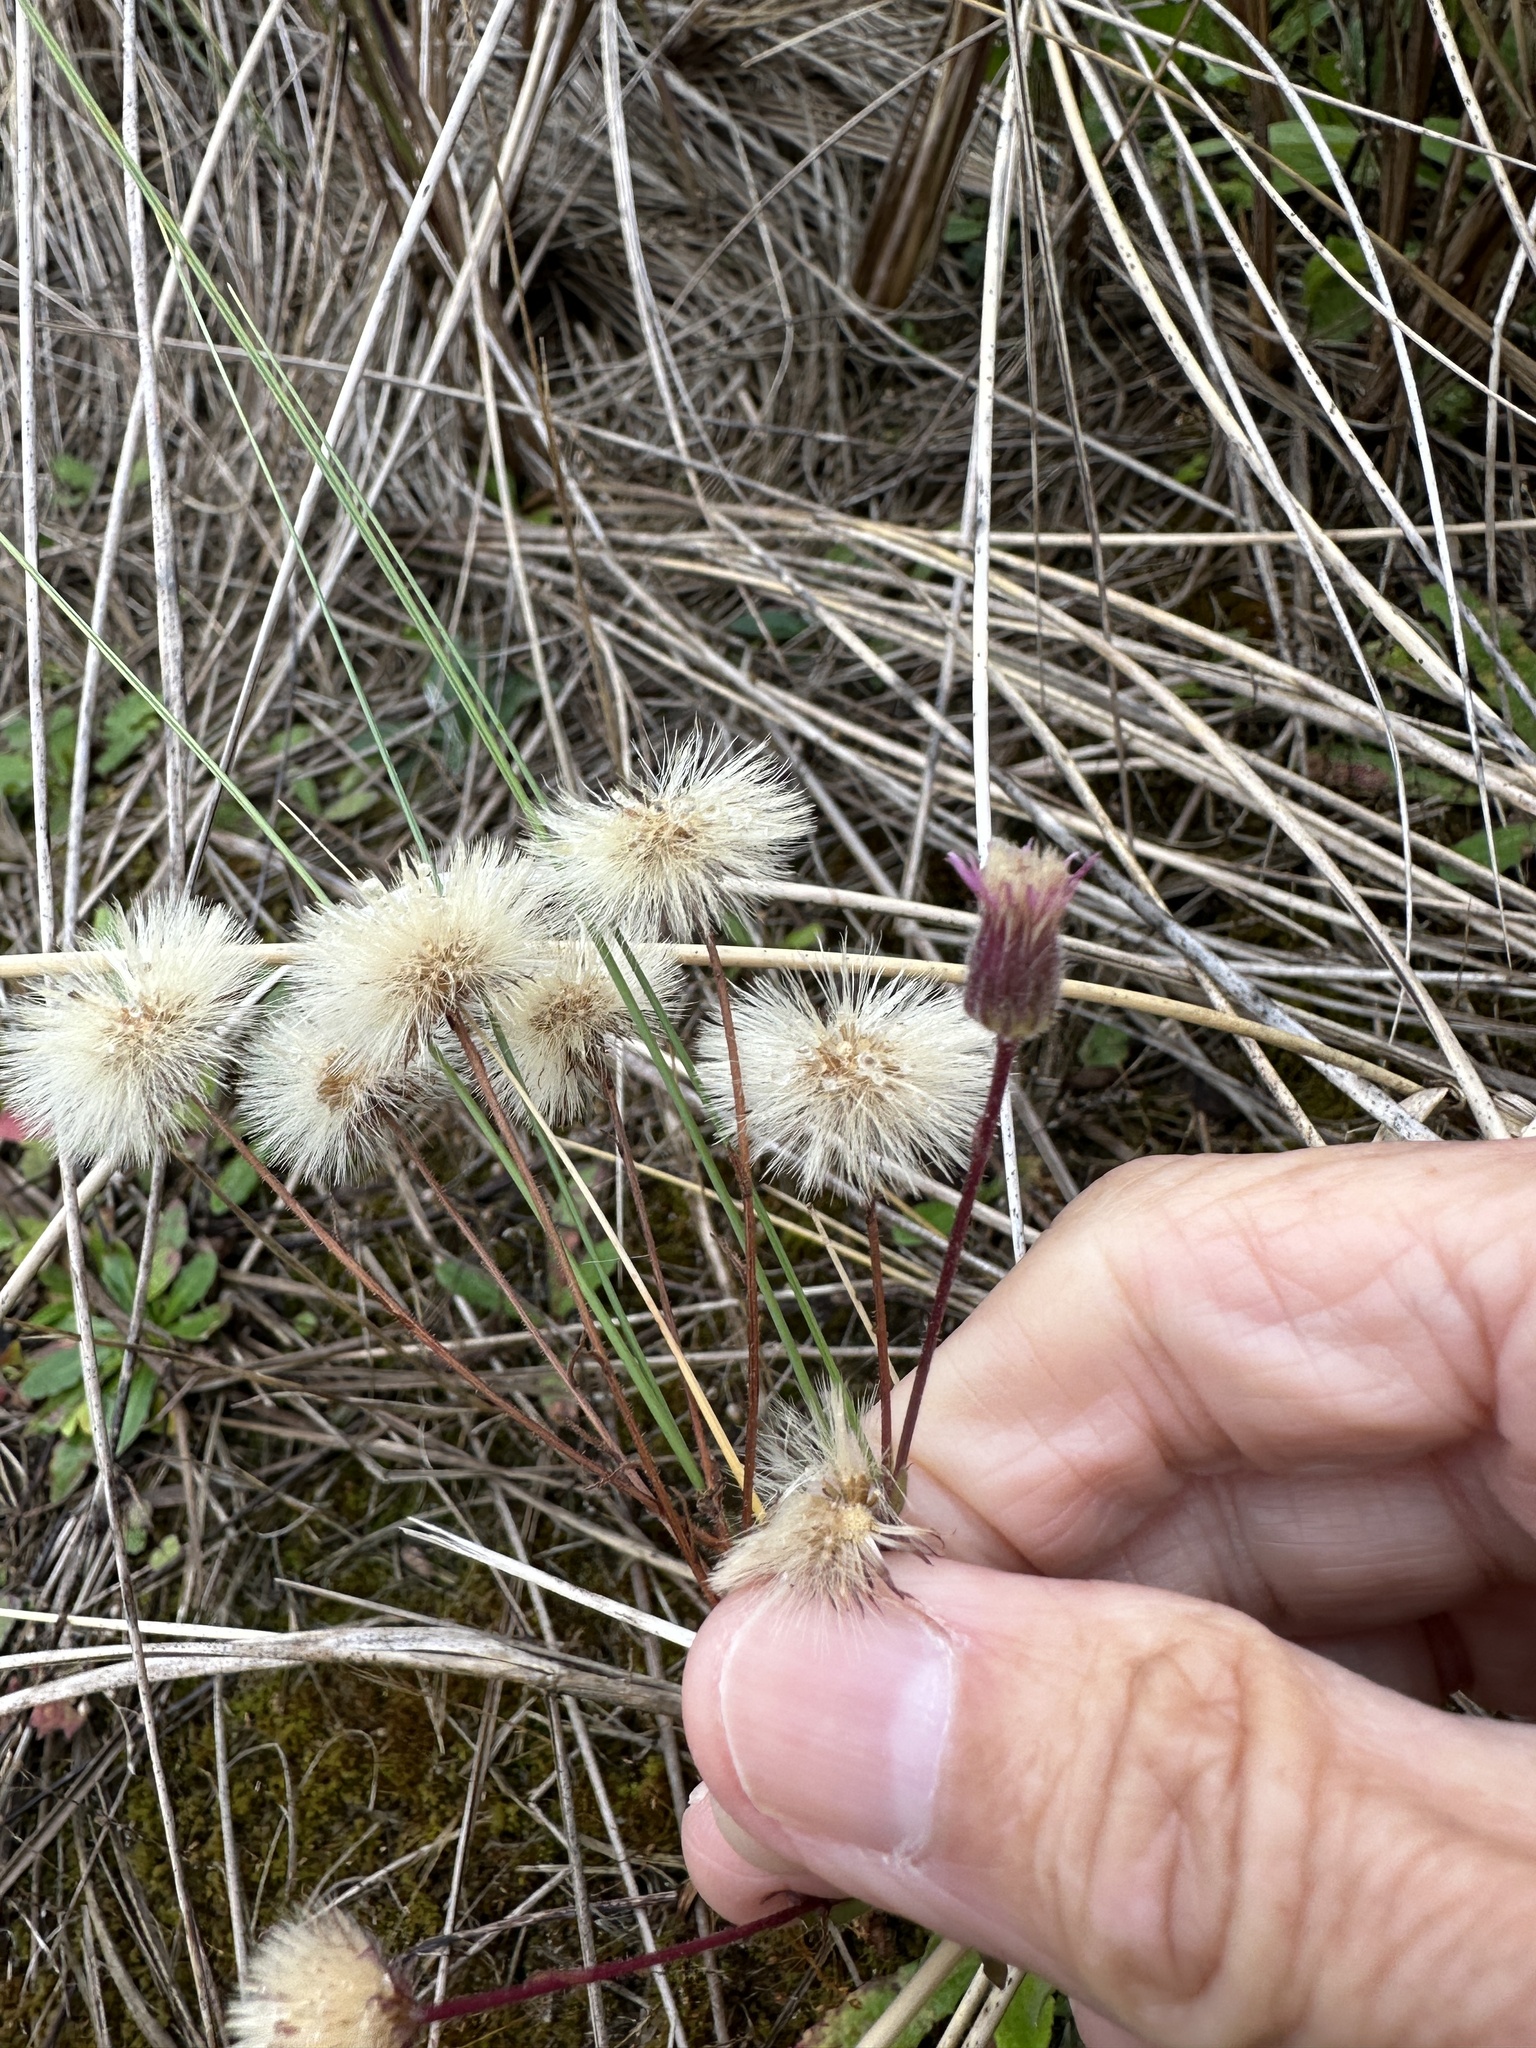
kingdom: Plantae
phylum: Tracheophyta
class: Magnoliopsida
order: Asterales
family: Asteraceae
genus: Erigeron
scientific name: Erigeron acris
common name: Blue fleabane
